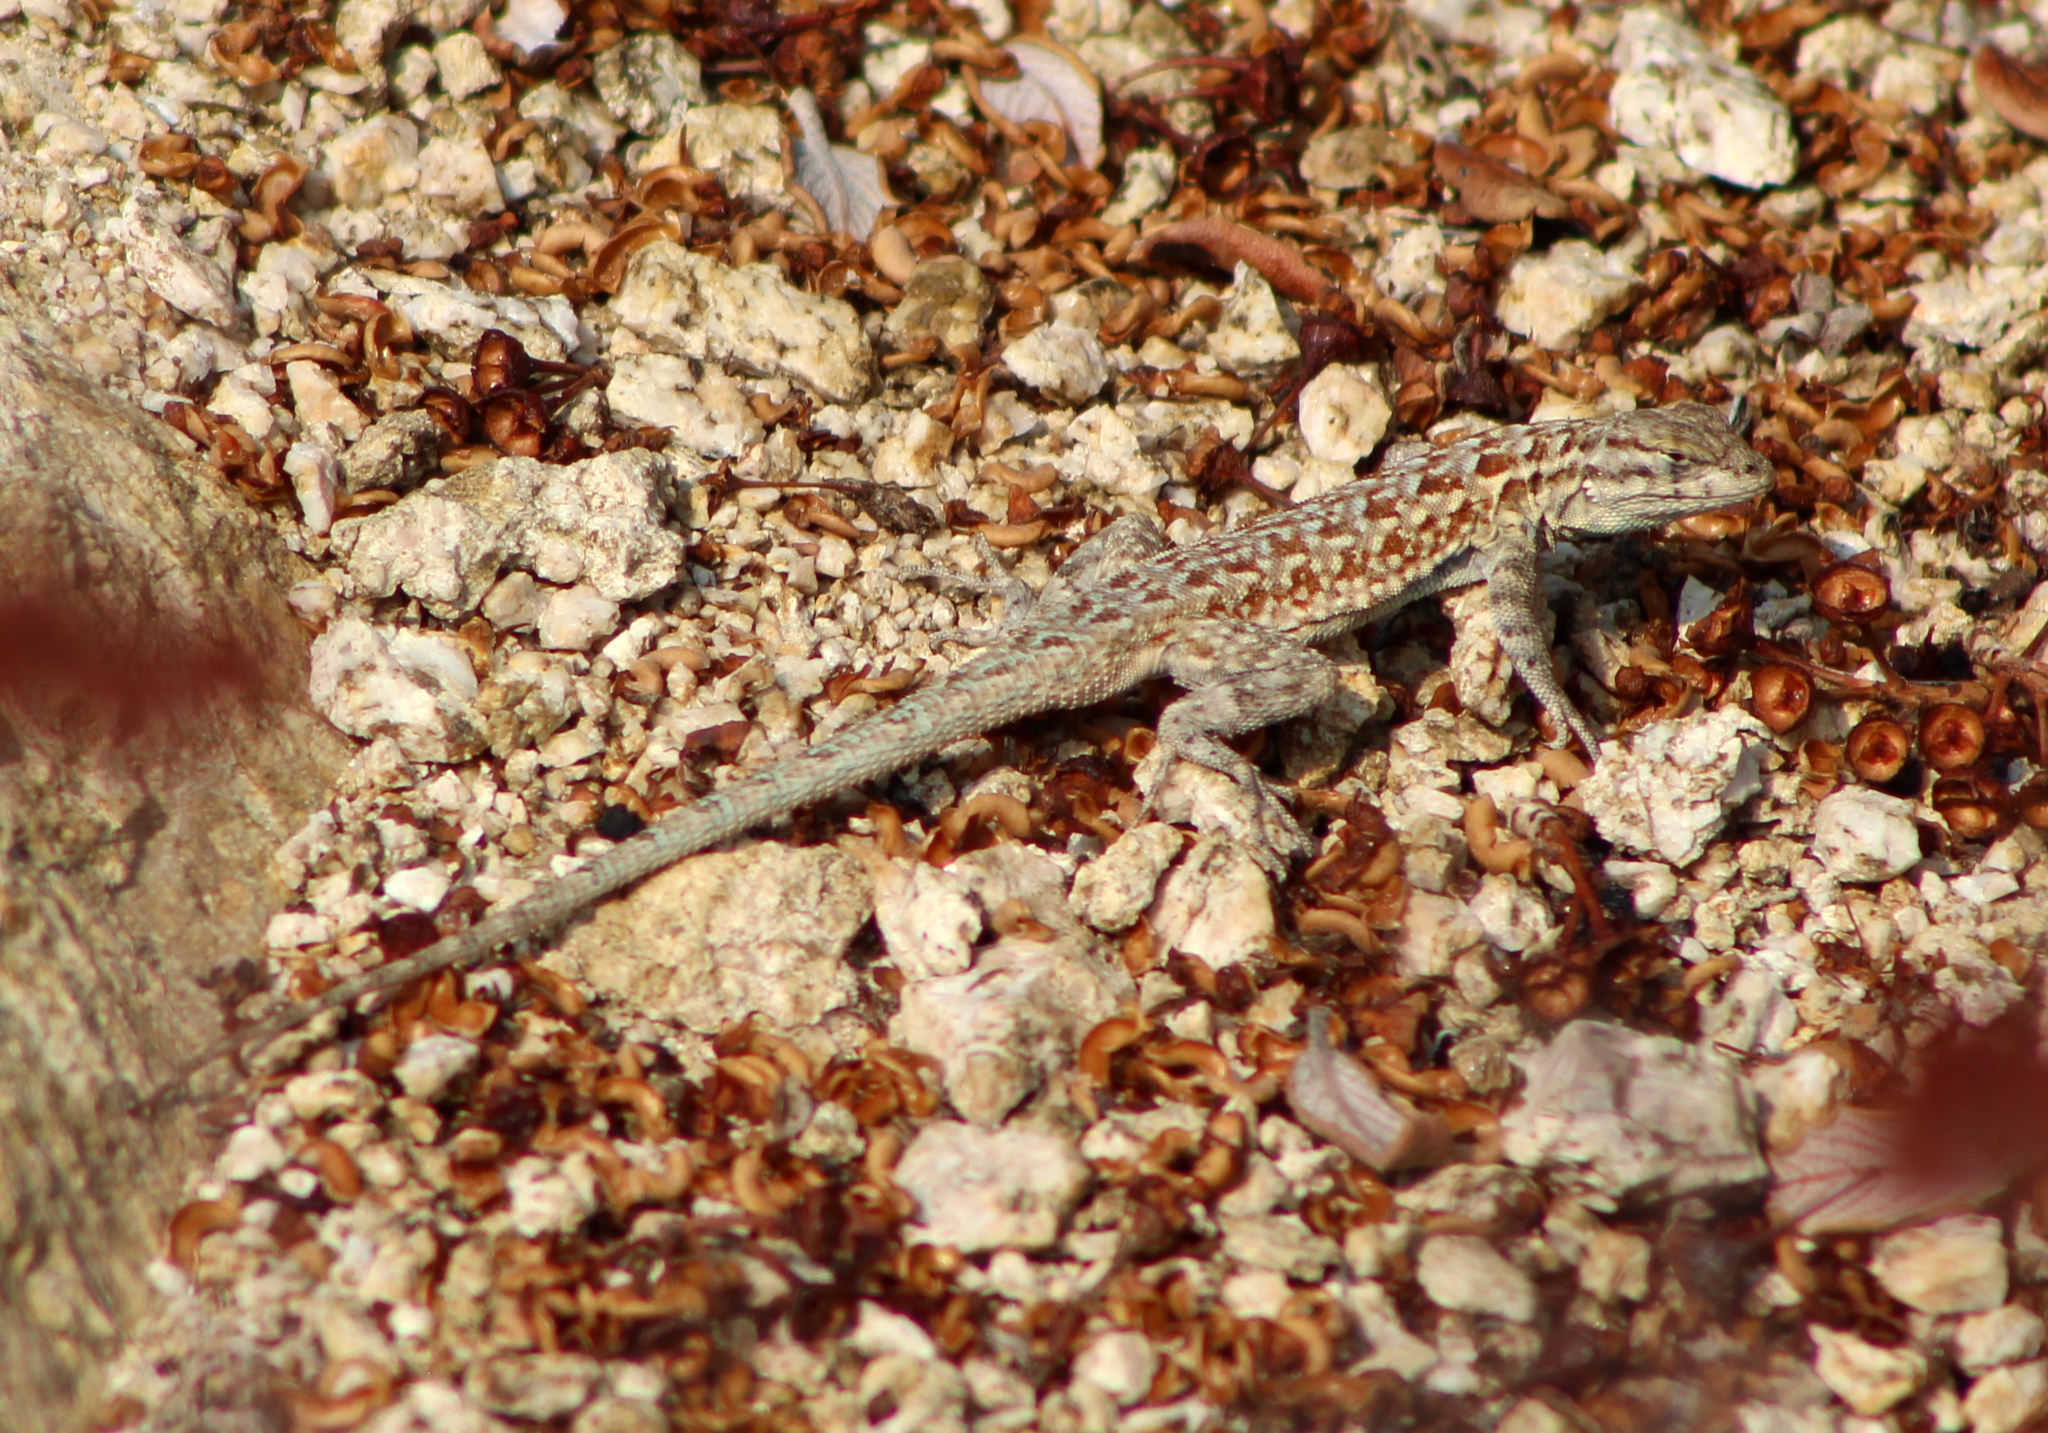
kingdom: Animalia
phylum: Chordata
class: Squamata
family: Phrynosomatidae
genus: Uta
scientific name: Uta stansburiana
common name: Side-blotched lizard
